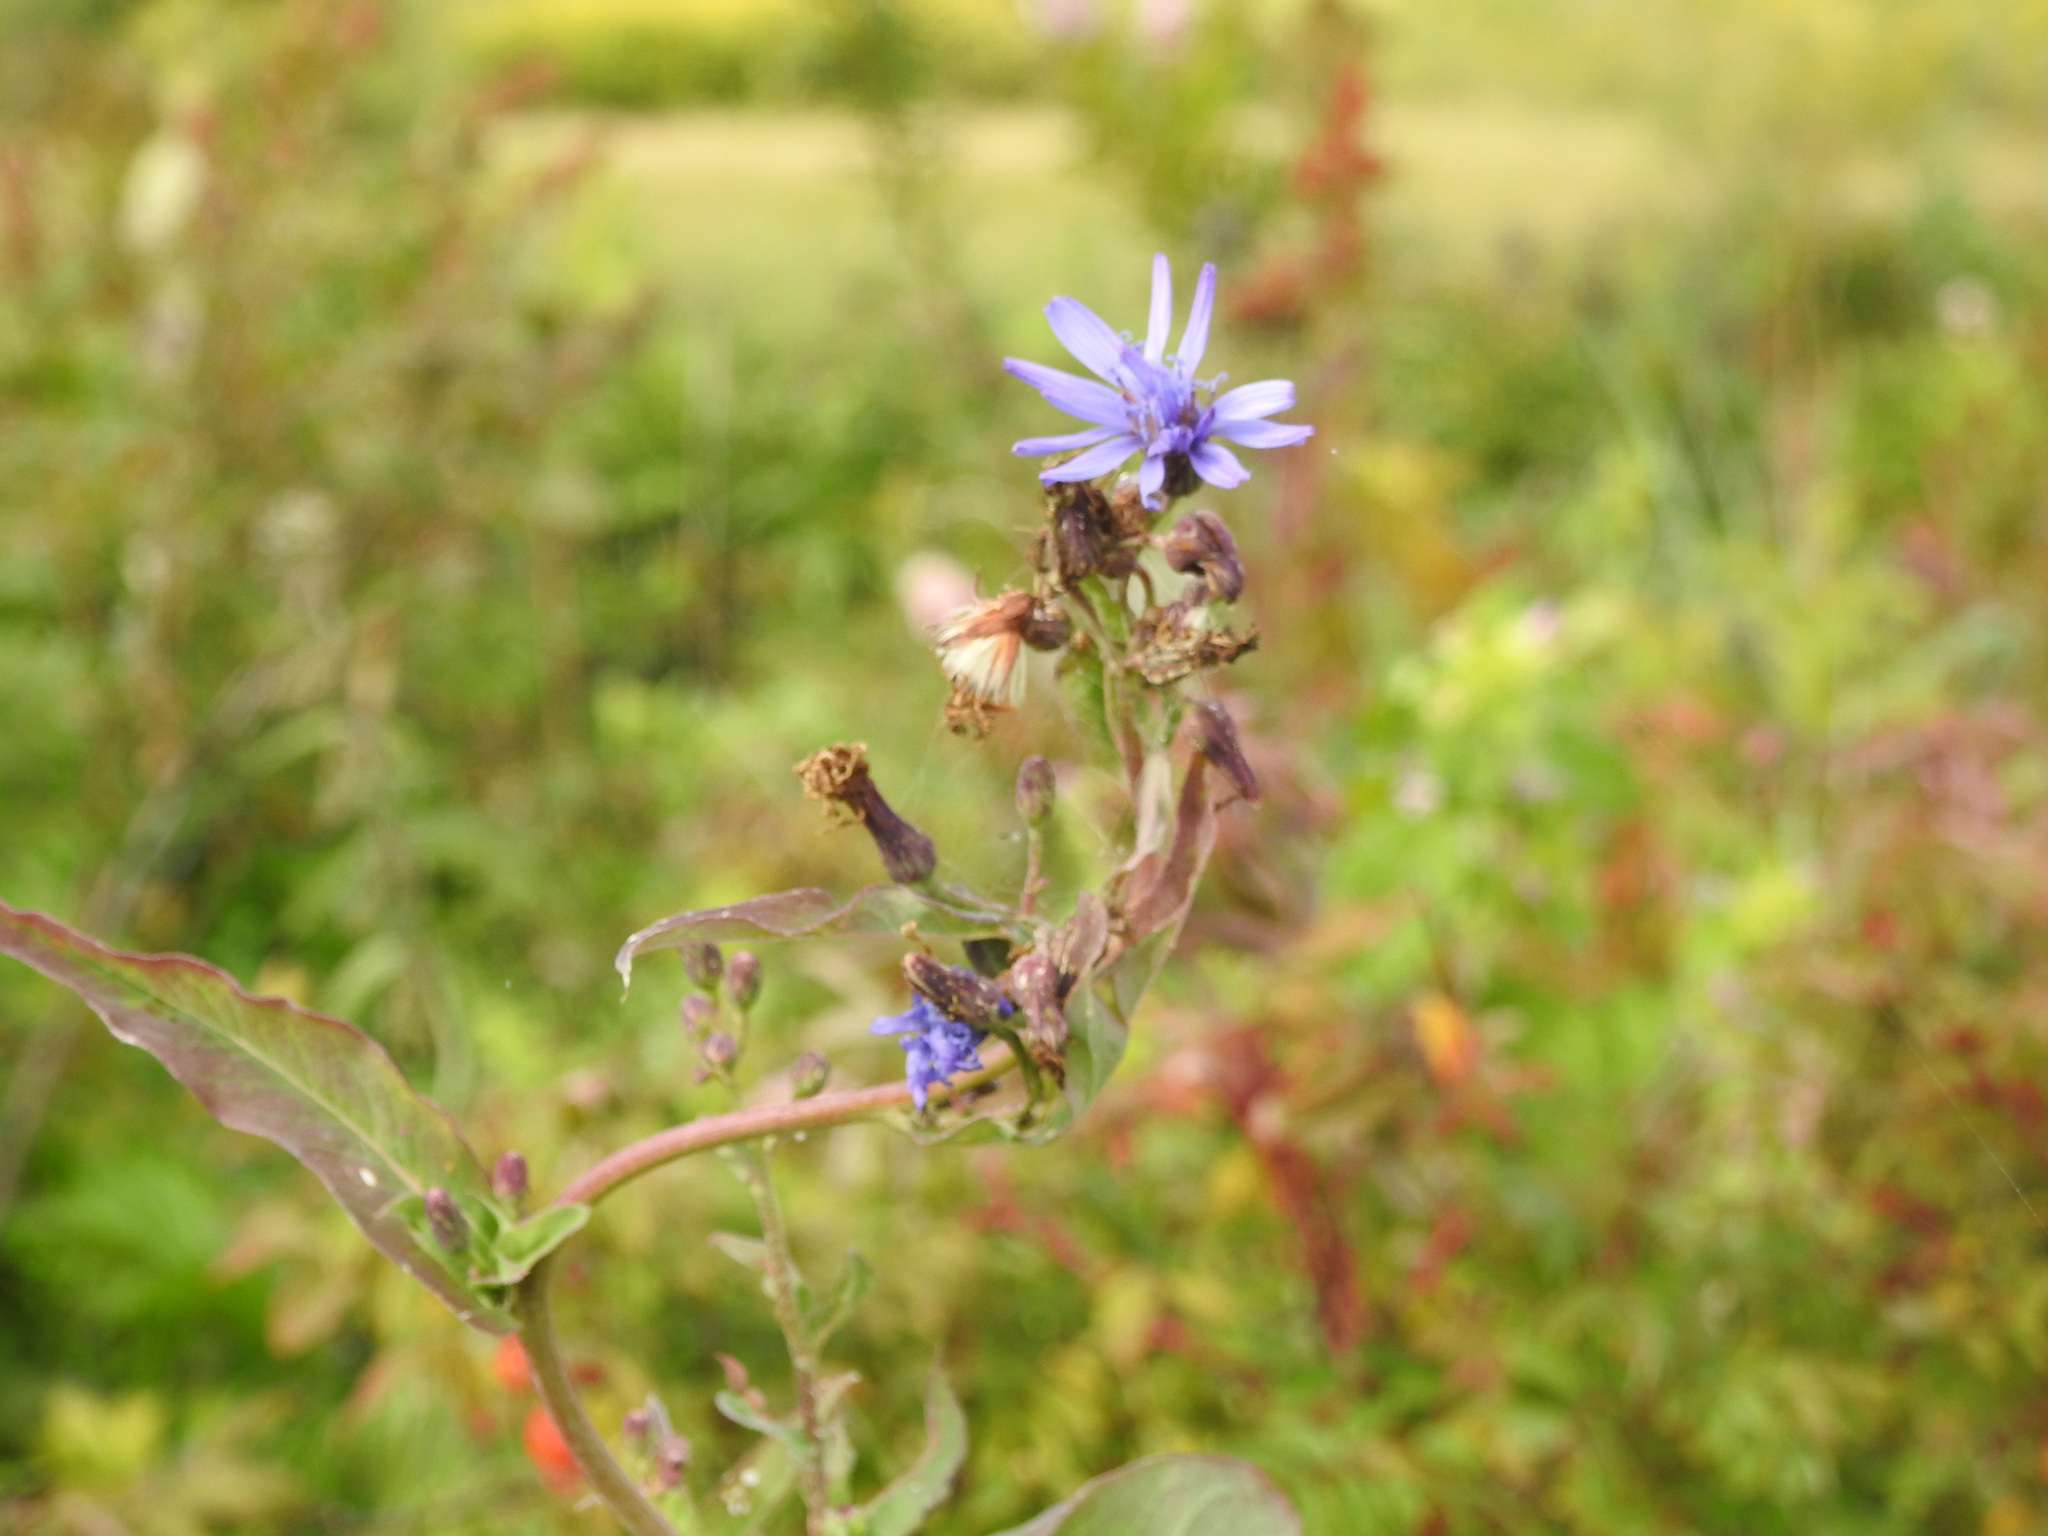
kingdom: Plantae
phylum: Tracheophyta
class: Magnoliopsida
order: Asterales
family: Asteraceae
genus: Lactuca
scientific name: Lactuca sibirica
